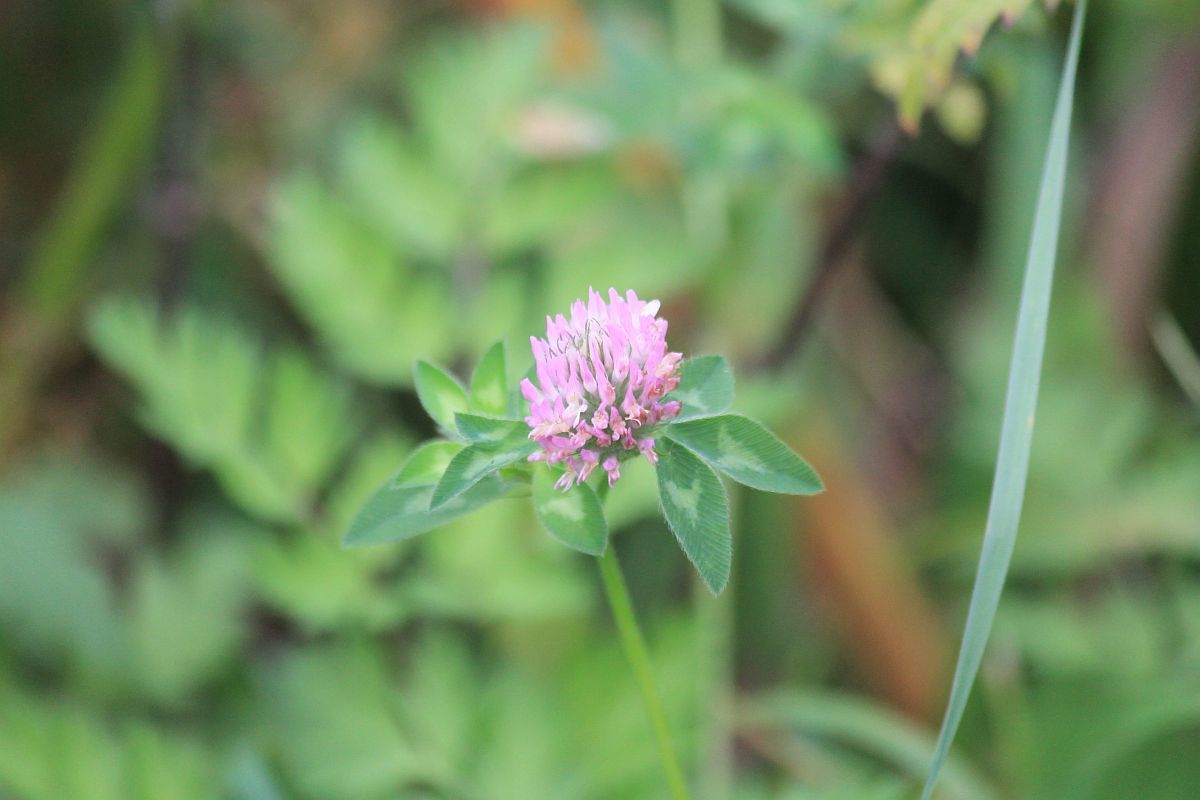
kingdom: Plantae
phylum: Tracheophyta
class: Magnoliopsida
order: Fabales
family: Fabaceae
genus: Trifolium
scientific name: Trifolium pratense
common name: Red clover
